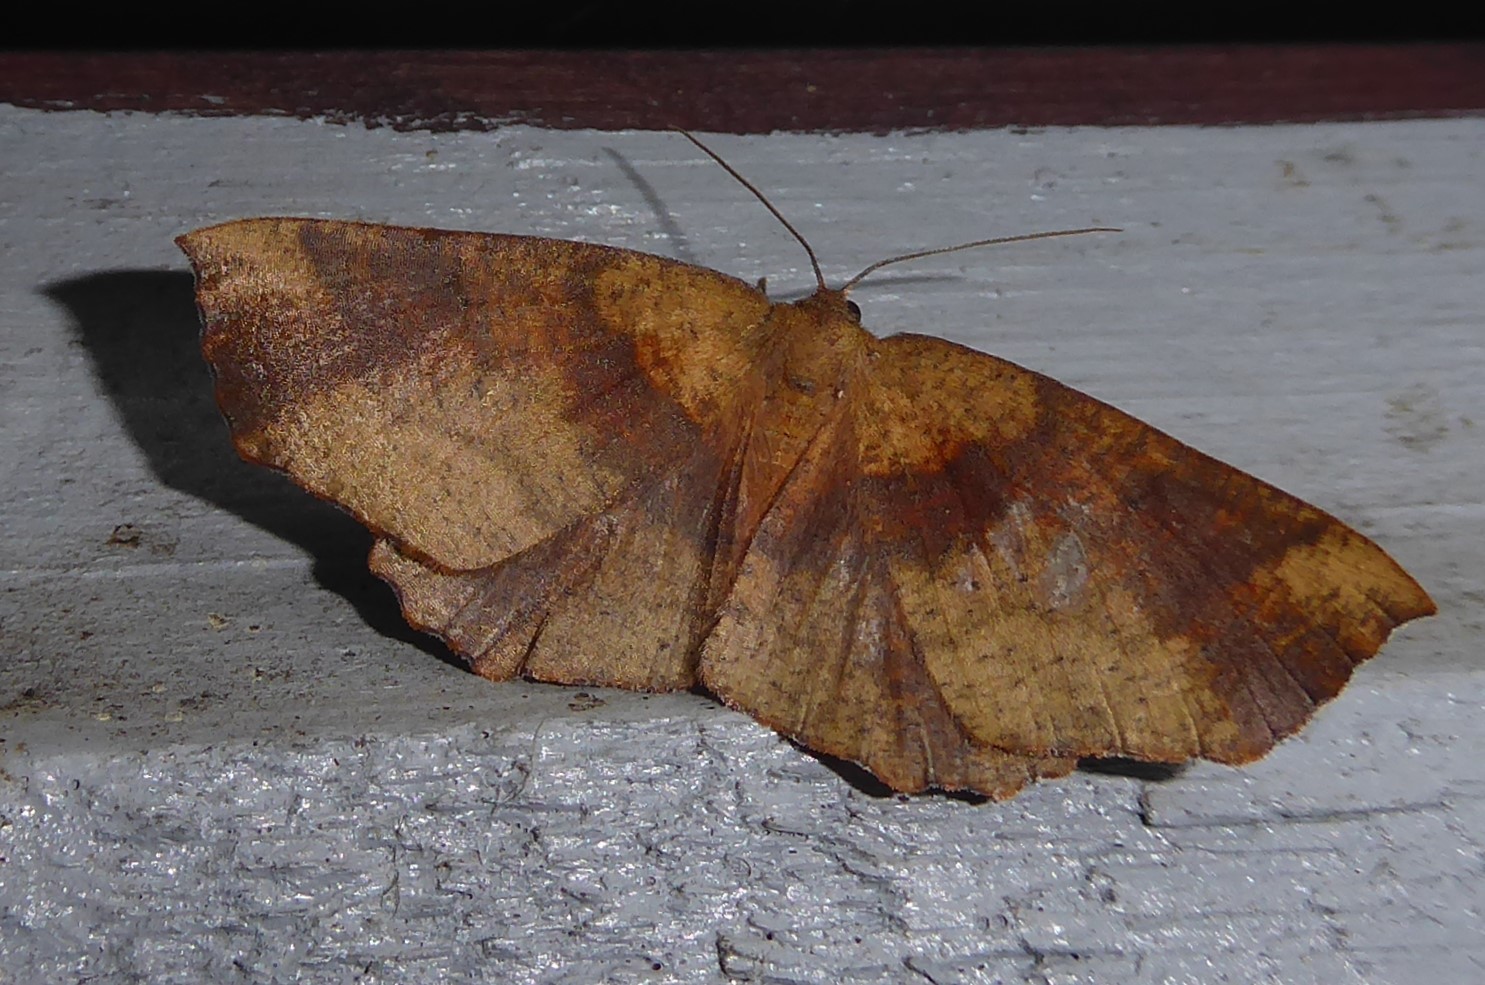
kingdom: Animalia
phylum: Arthropoda
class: Insecta
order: Lepidoptera
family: Geometridae
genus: Xyridacma
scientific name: Xyridacma ustaria
